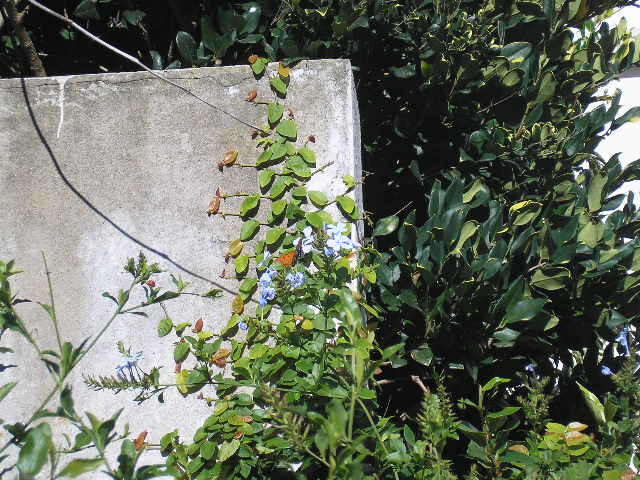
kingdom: Animalia
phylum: Arthropoda
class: Insecta
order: Lepidoptera
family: Nymphalidae
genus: Dione
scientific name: Dione vanillae
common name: Gulf fritillary
